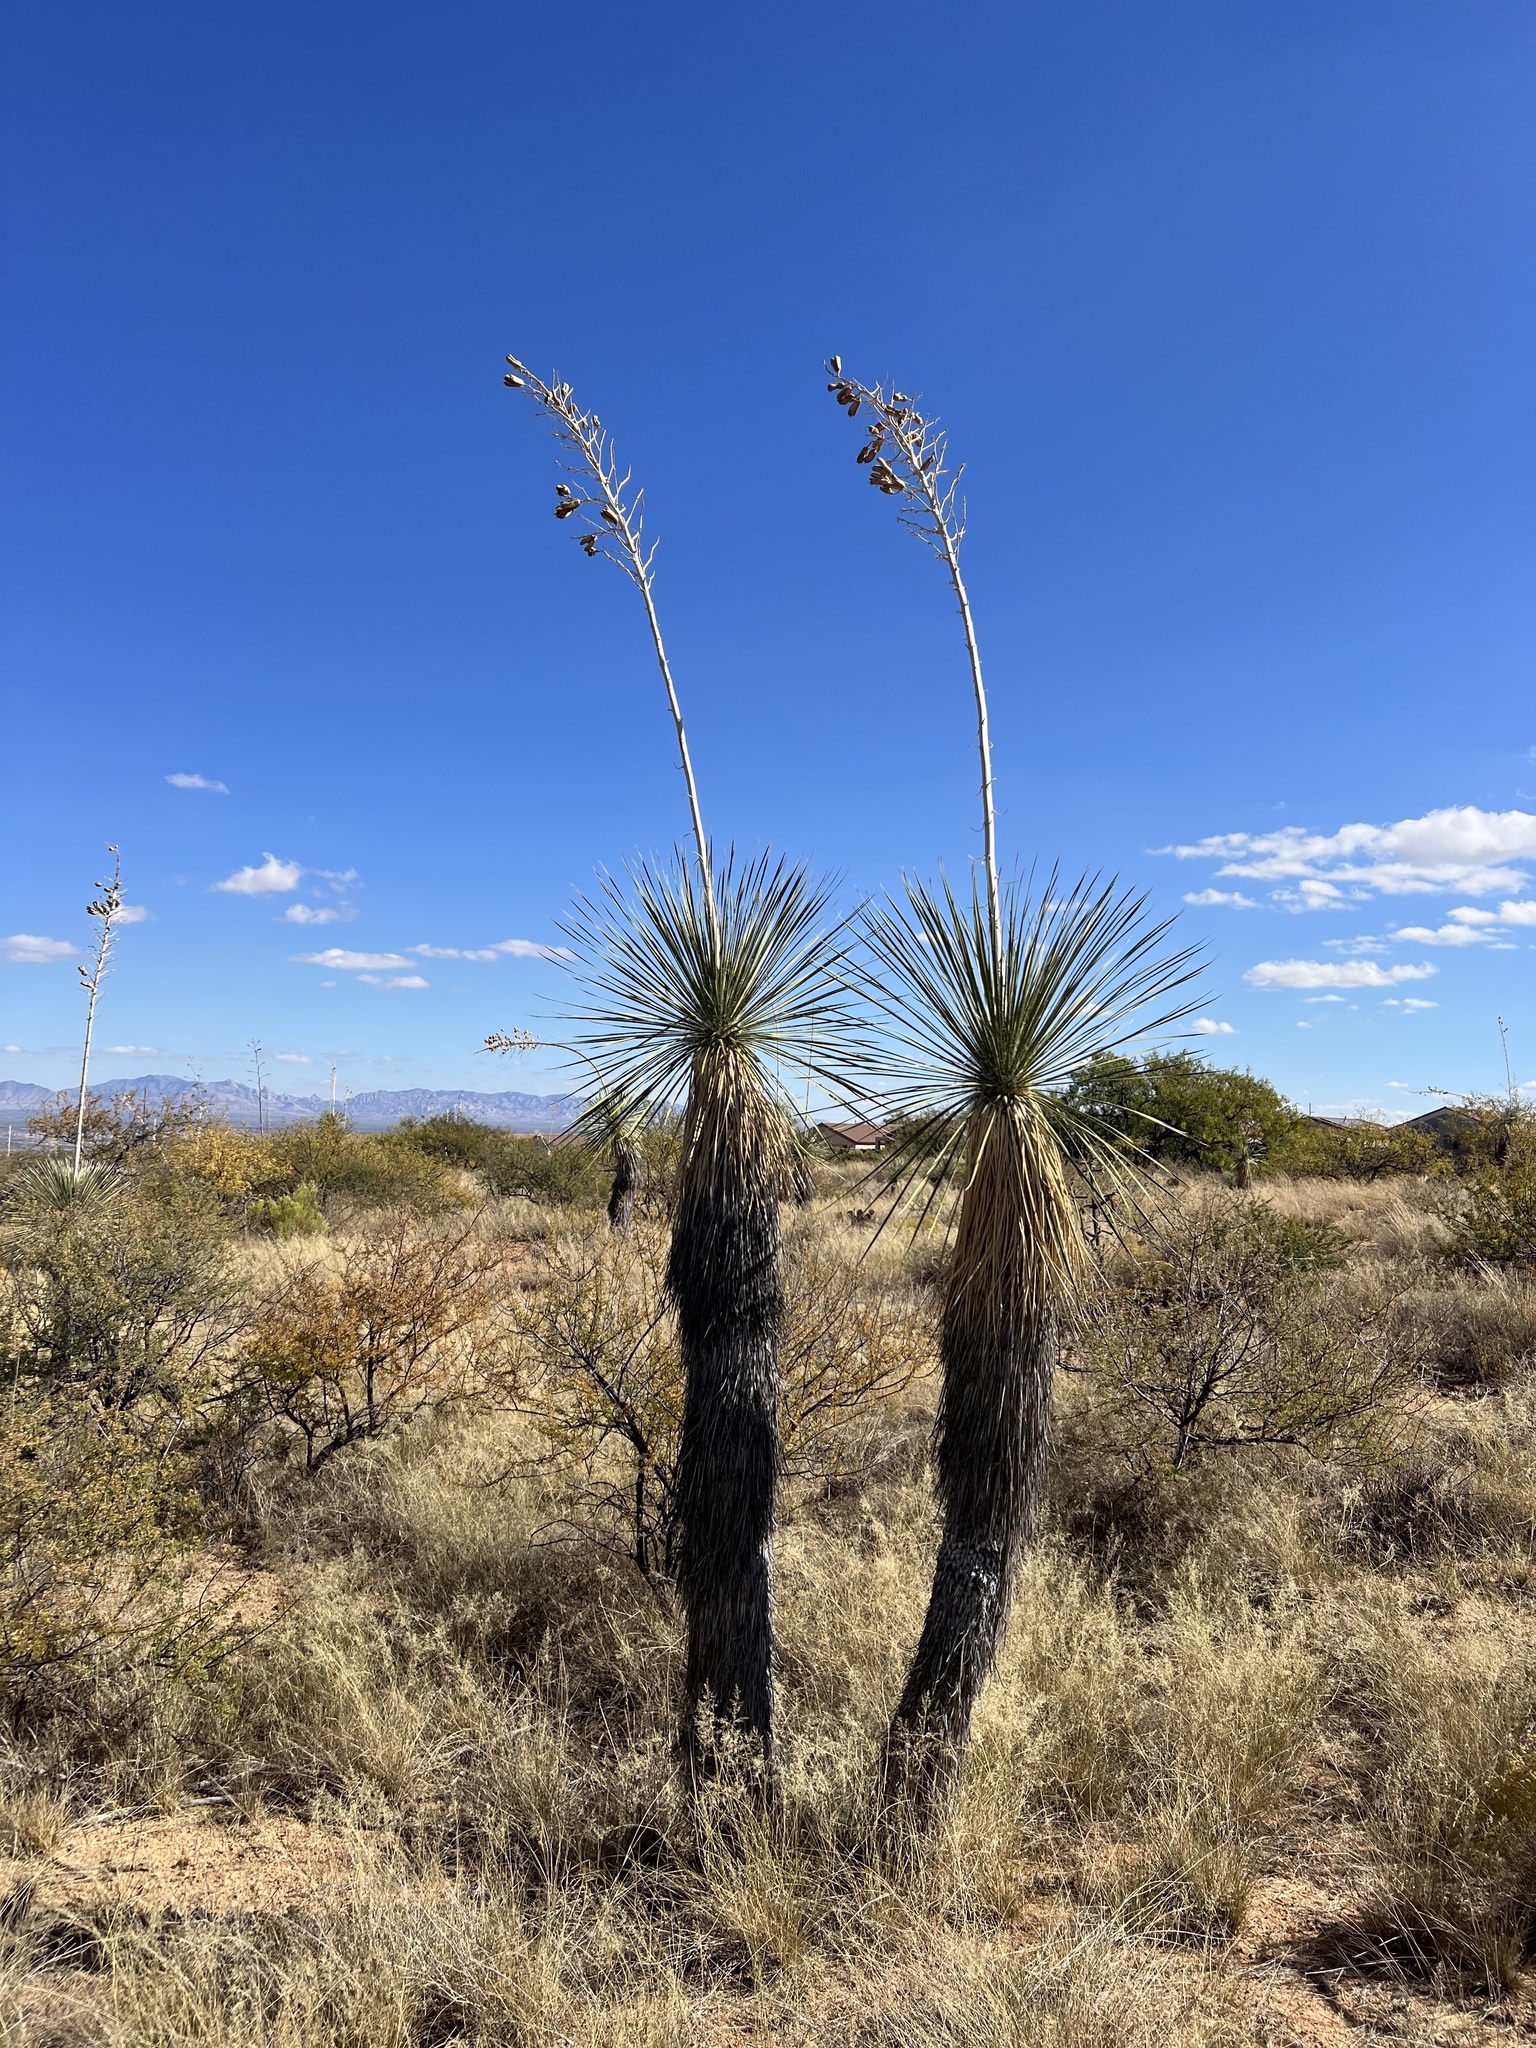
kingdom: Plantae
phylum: Tracheophyta
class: Liliopsida
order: Asparagales
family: Asparagaceae
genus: Yucca
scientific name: Yucca elata
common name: Palmella
